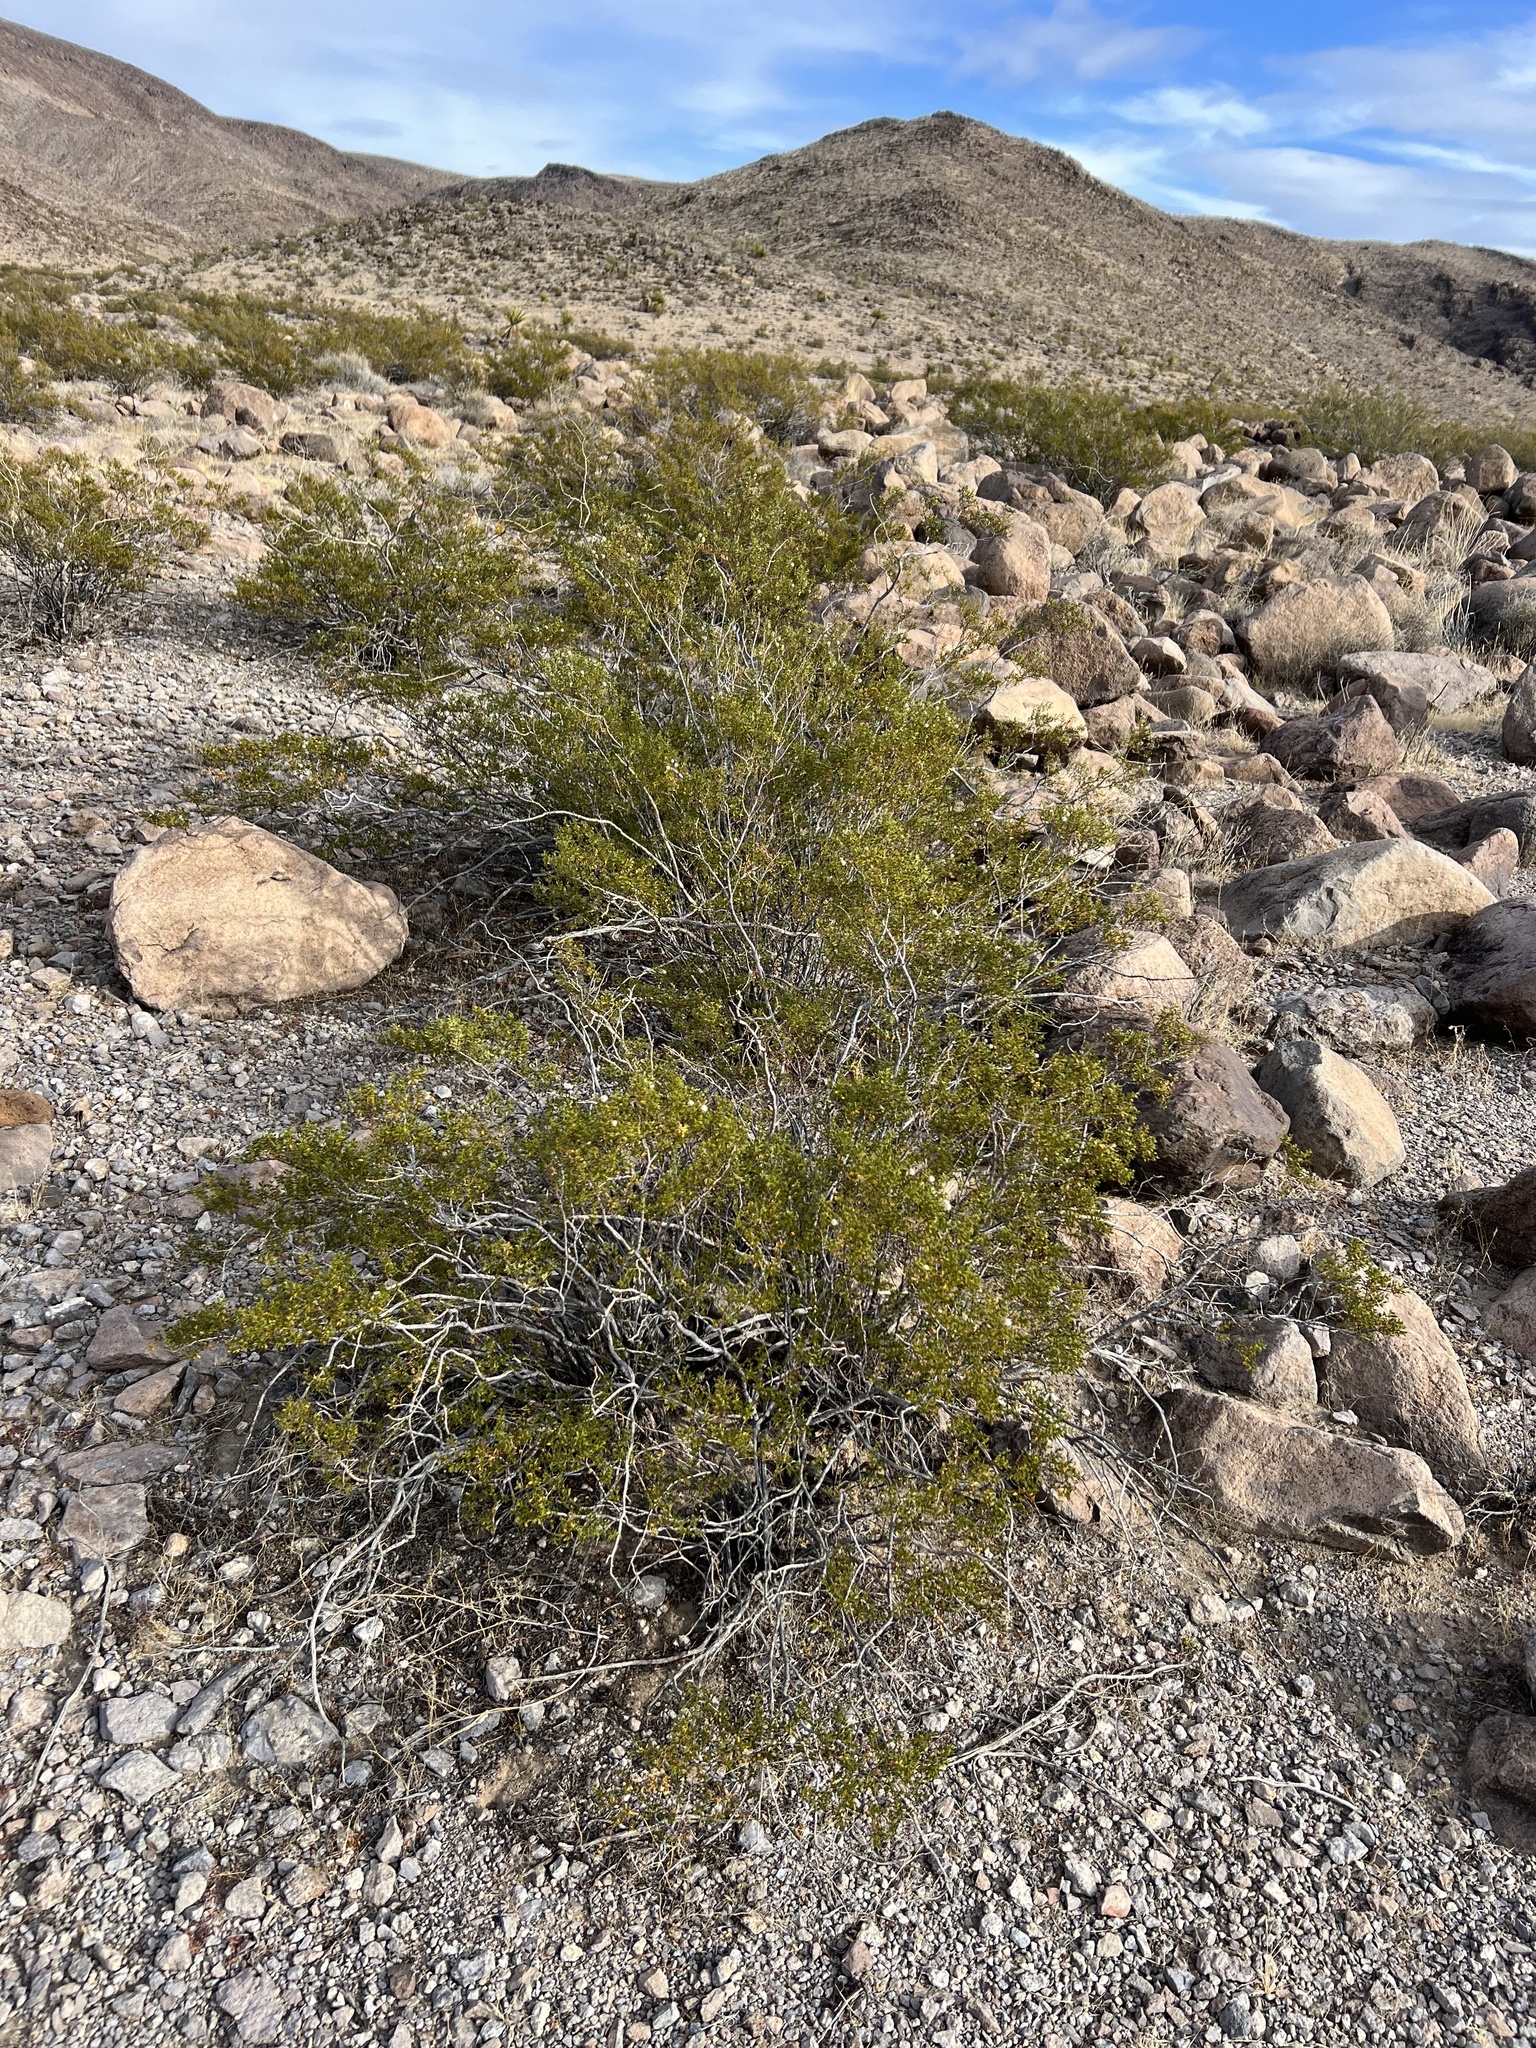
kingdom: Plantae
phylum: Tracheophyta
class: Magnoliopsida
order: Zygophyllales
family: Zygophyllaceae
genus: Larrea
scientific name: Larrea tridentata
